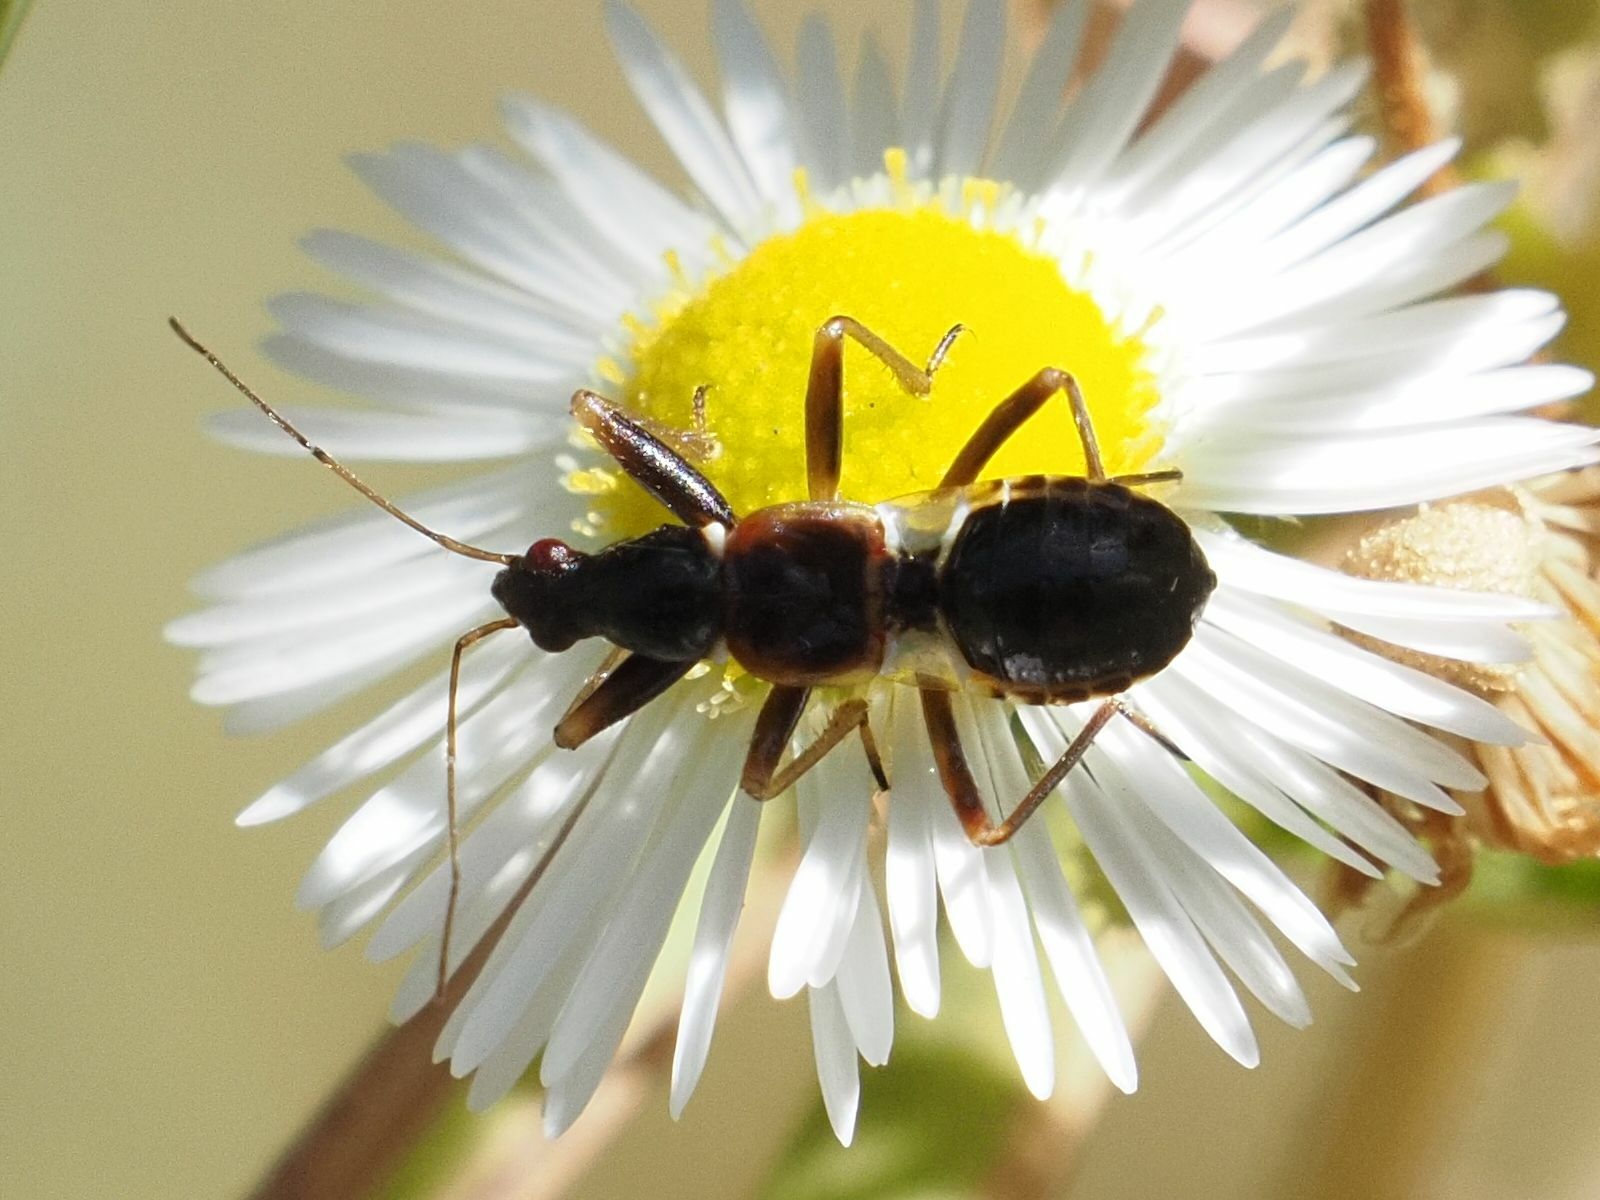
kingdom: Animalia
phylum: Arthropoda
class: Insecta
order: Hemiptera
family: Nabidae
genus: Himacerus
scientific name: Himacerus mirmicoides
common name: Ant damsel bug
